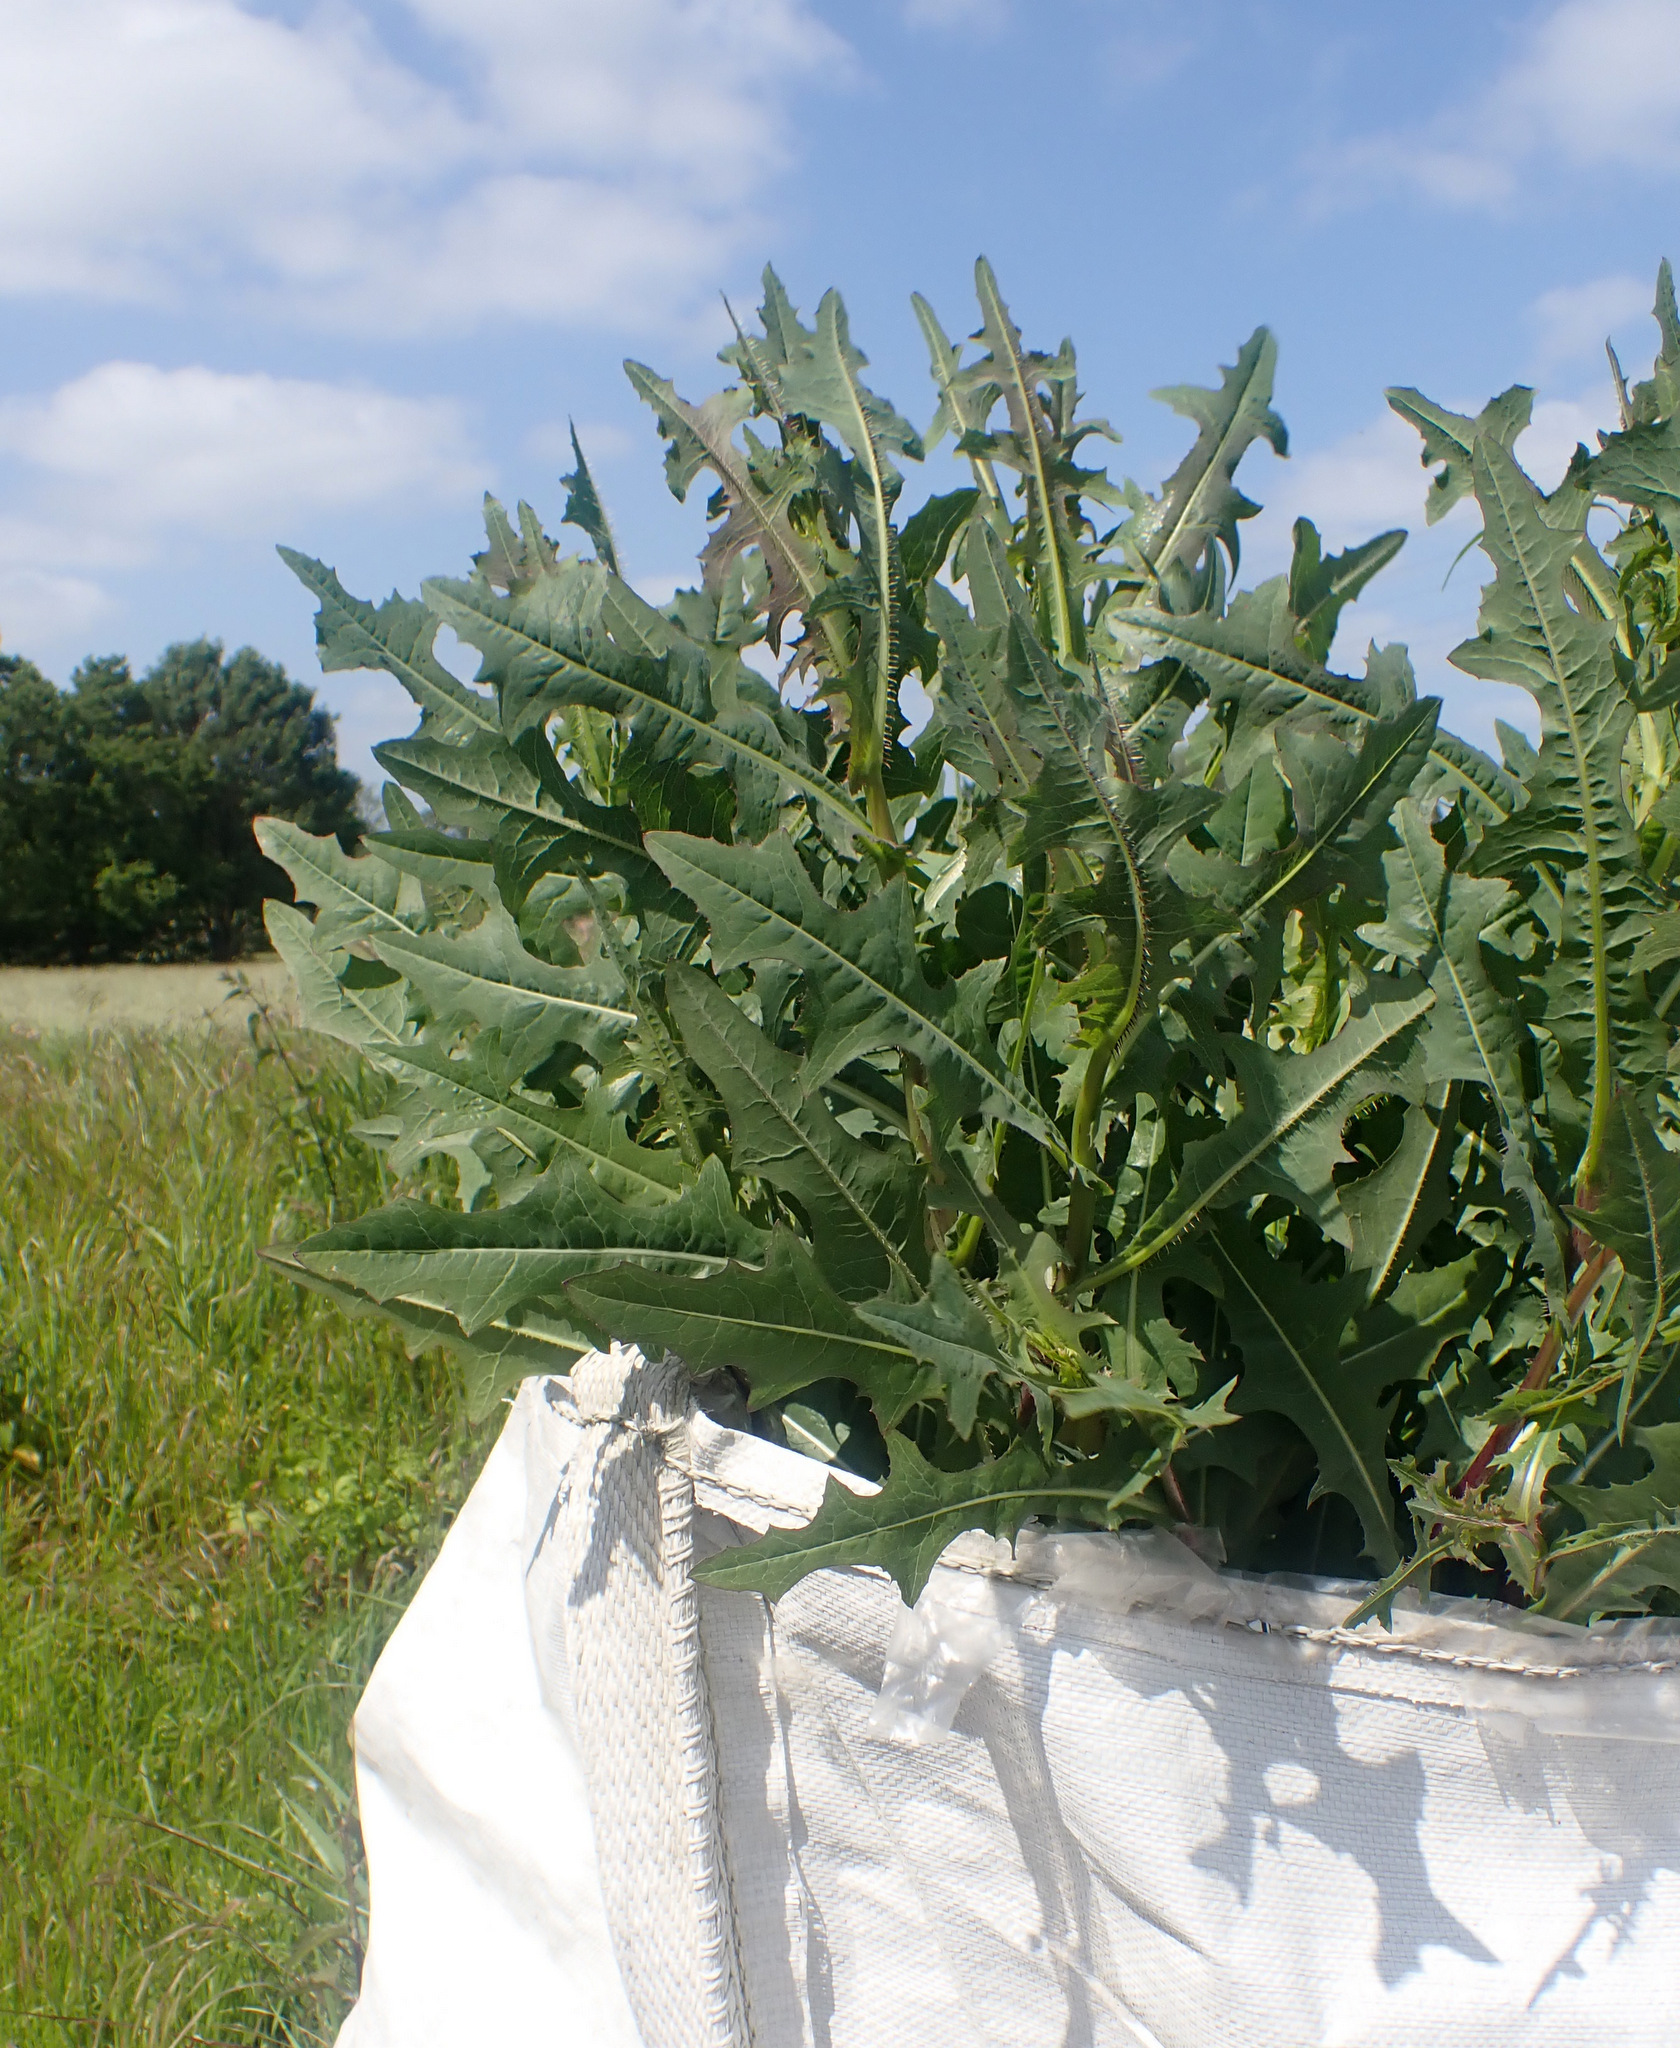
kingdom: Plantae
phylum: Tracheophyta
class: Magnoliopsida
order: Asterales
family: Asteraceae
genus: Lactuca
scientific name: Lactuca serriola
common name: Prickly lettuce
